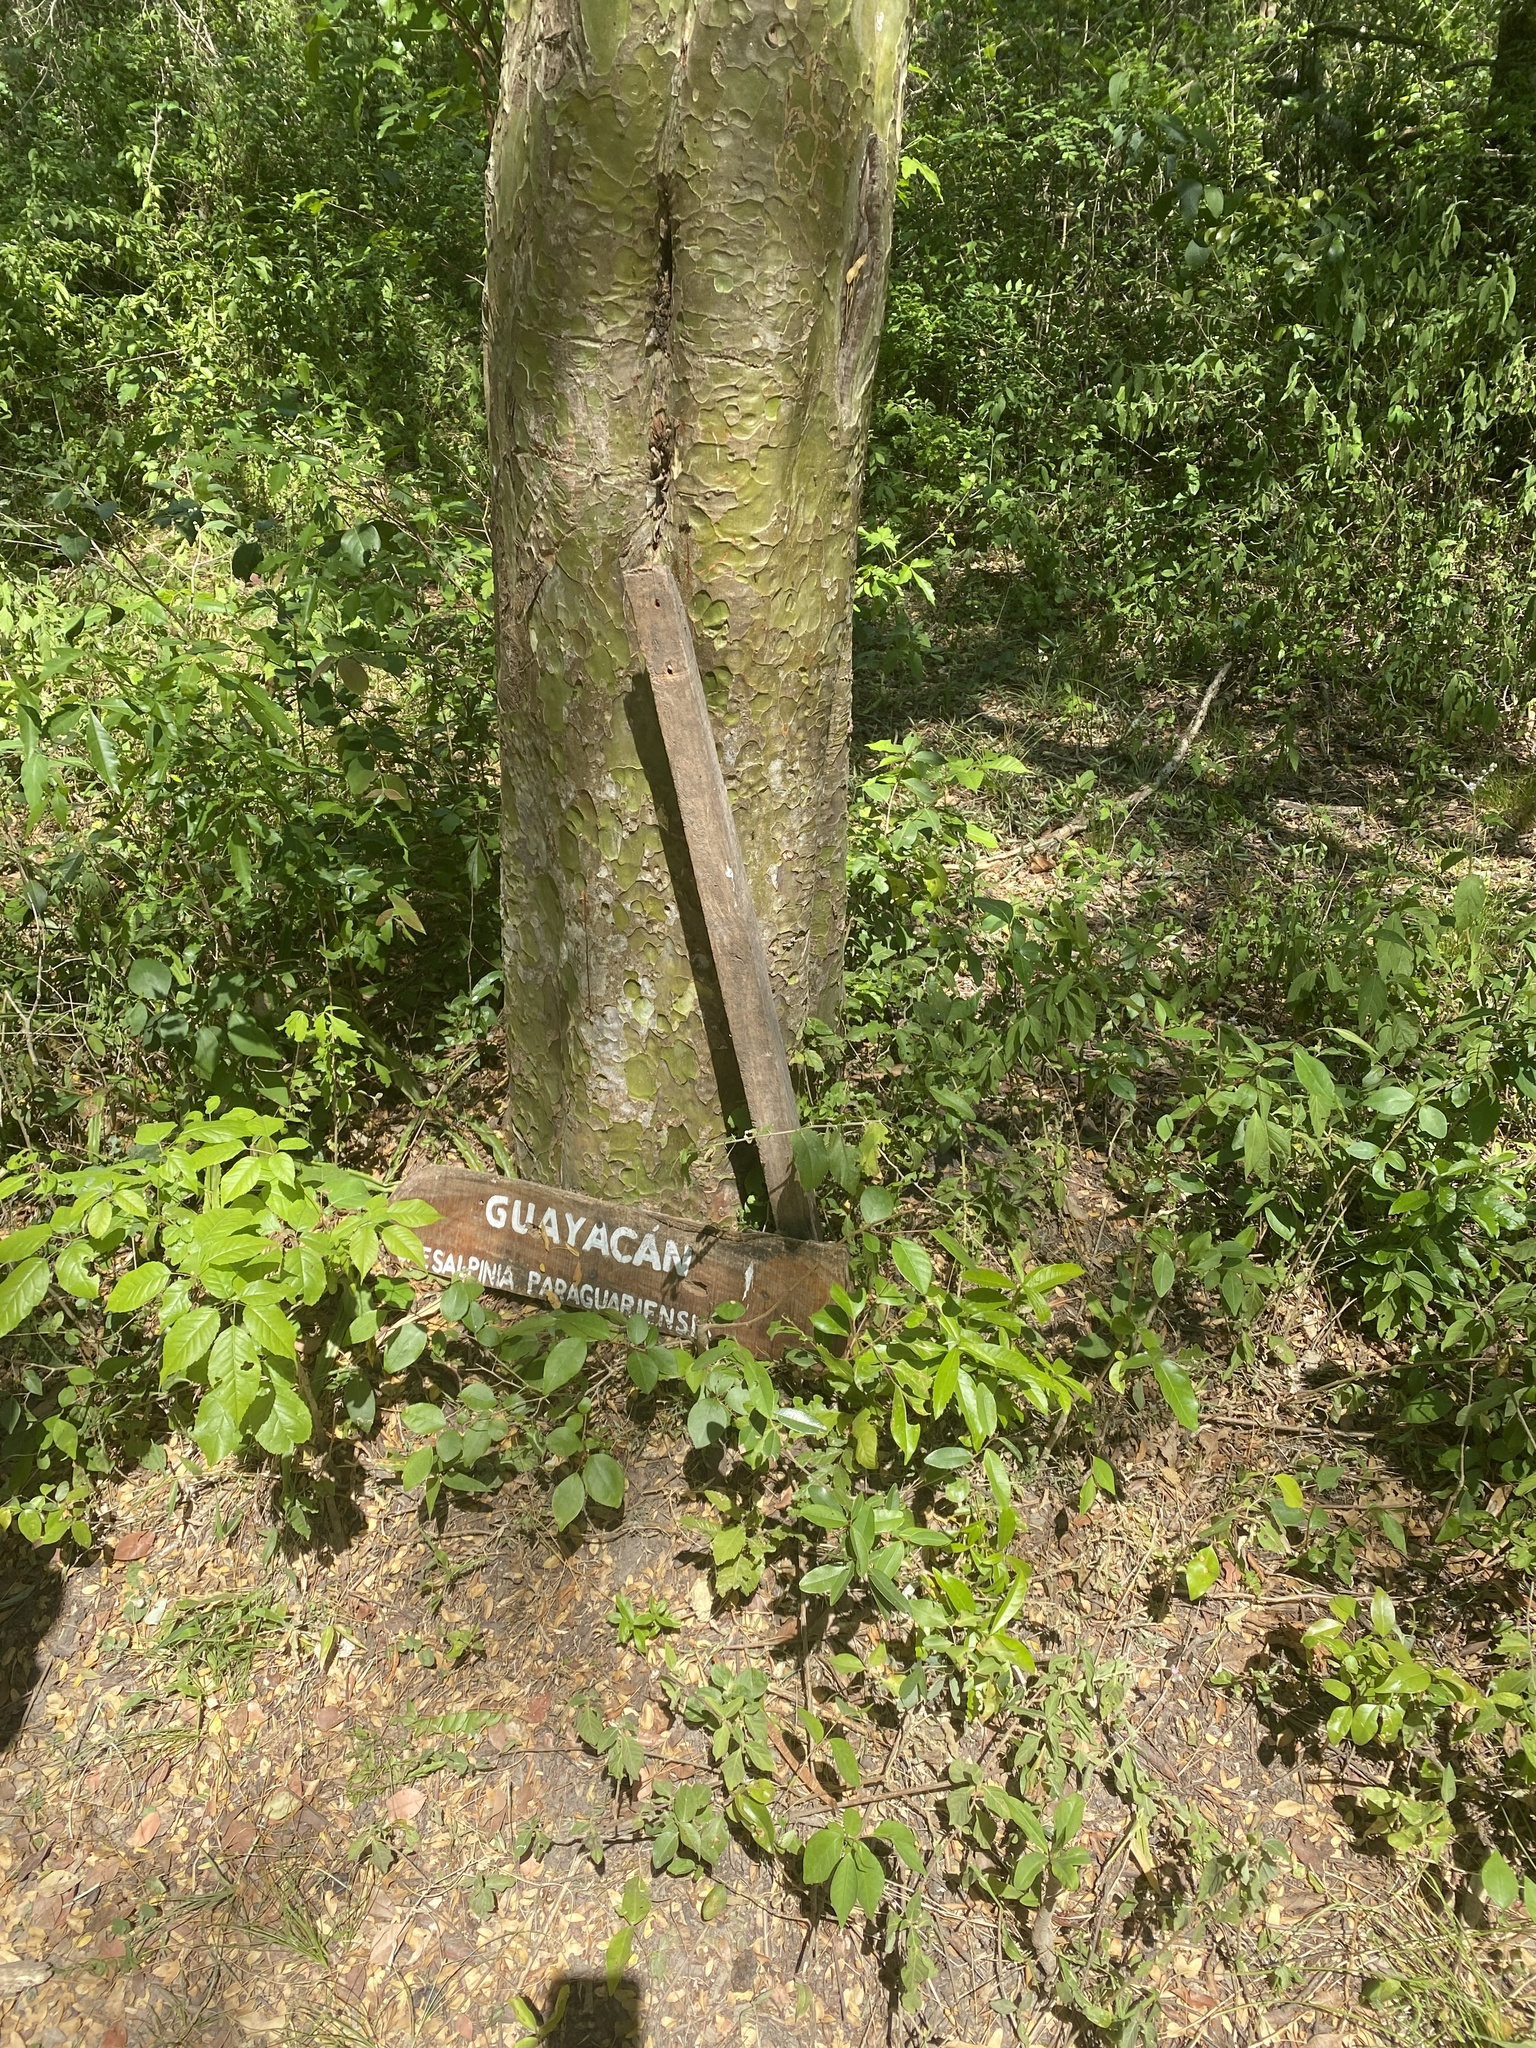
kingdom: Plantae
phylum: Tracheophyta
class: Magnoliopsida
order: Fabales
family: Fabaceae
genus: Libidibia
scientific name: Libidibia paraguariensis
